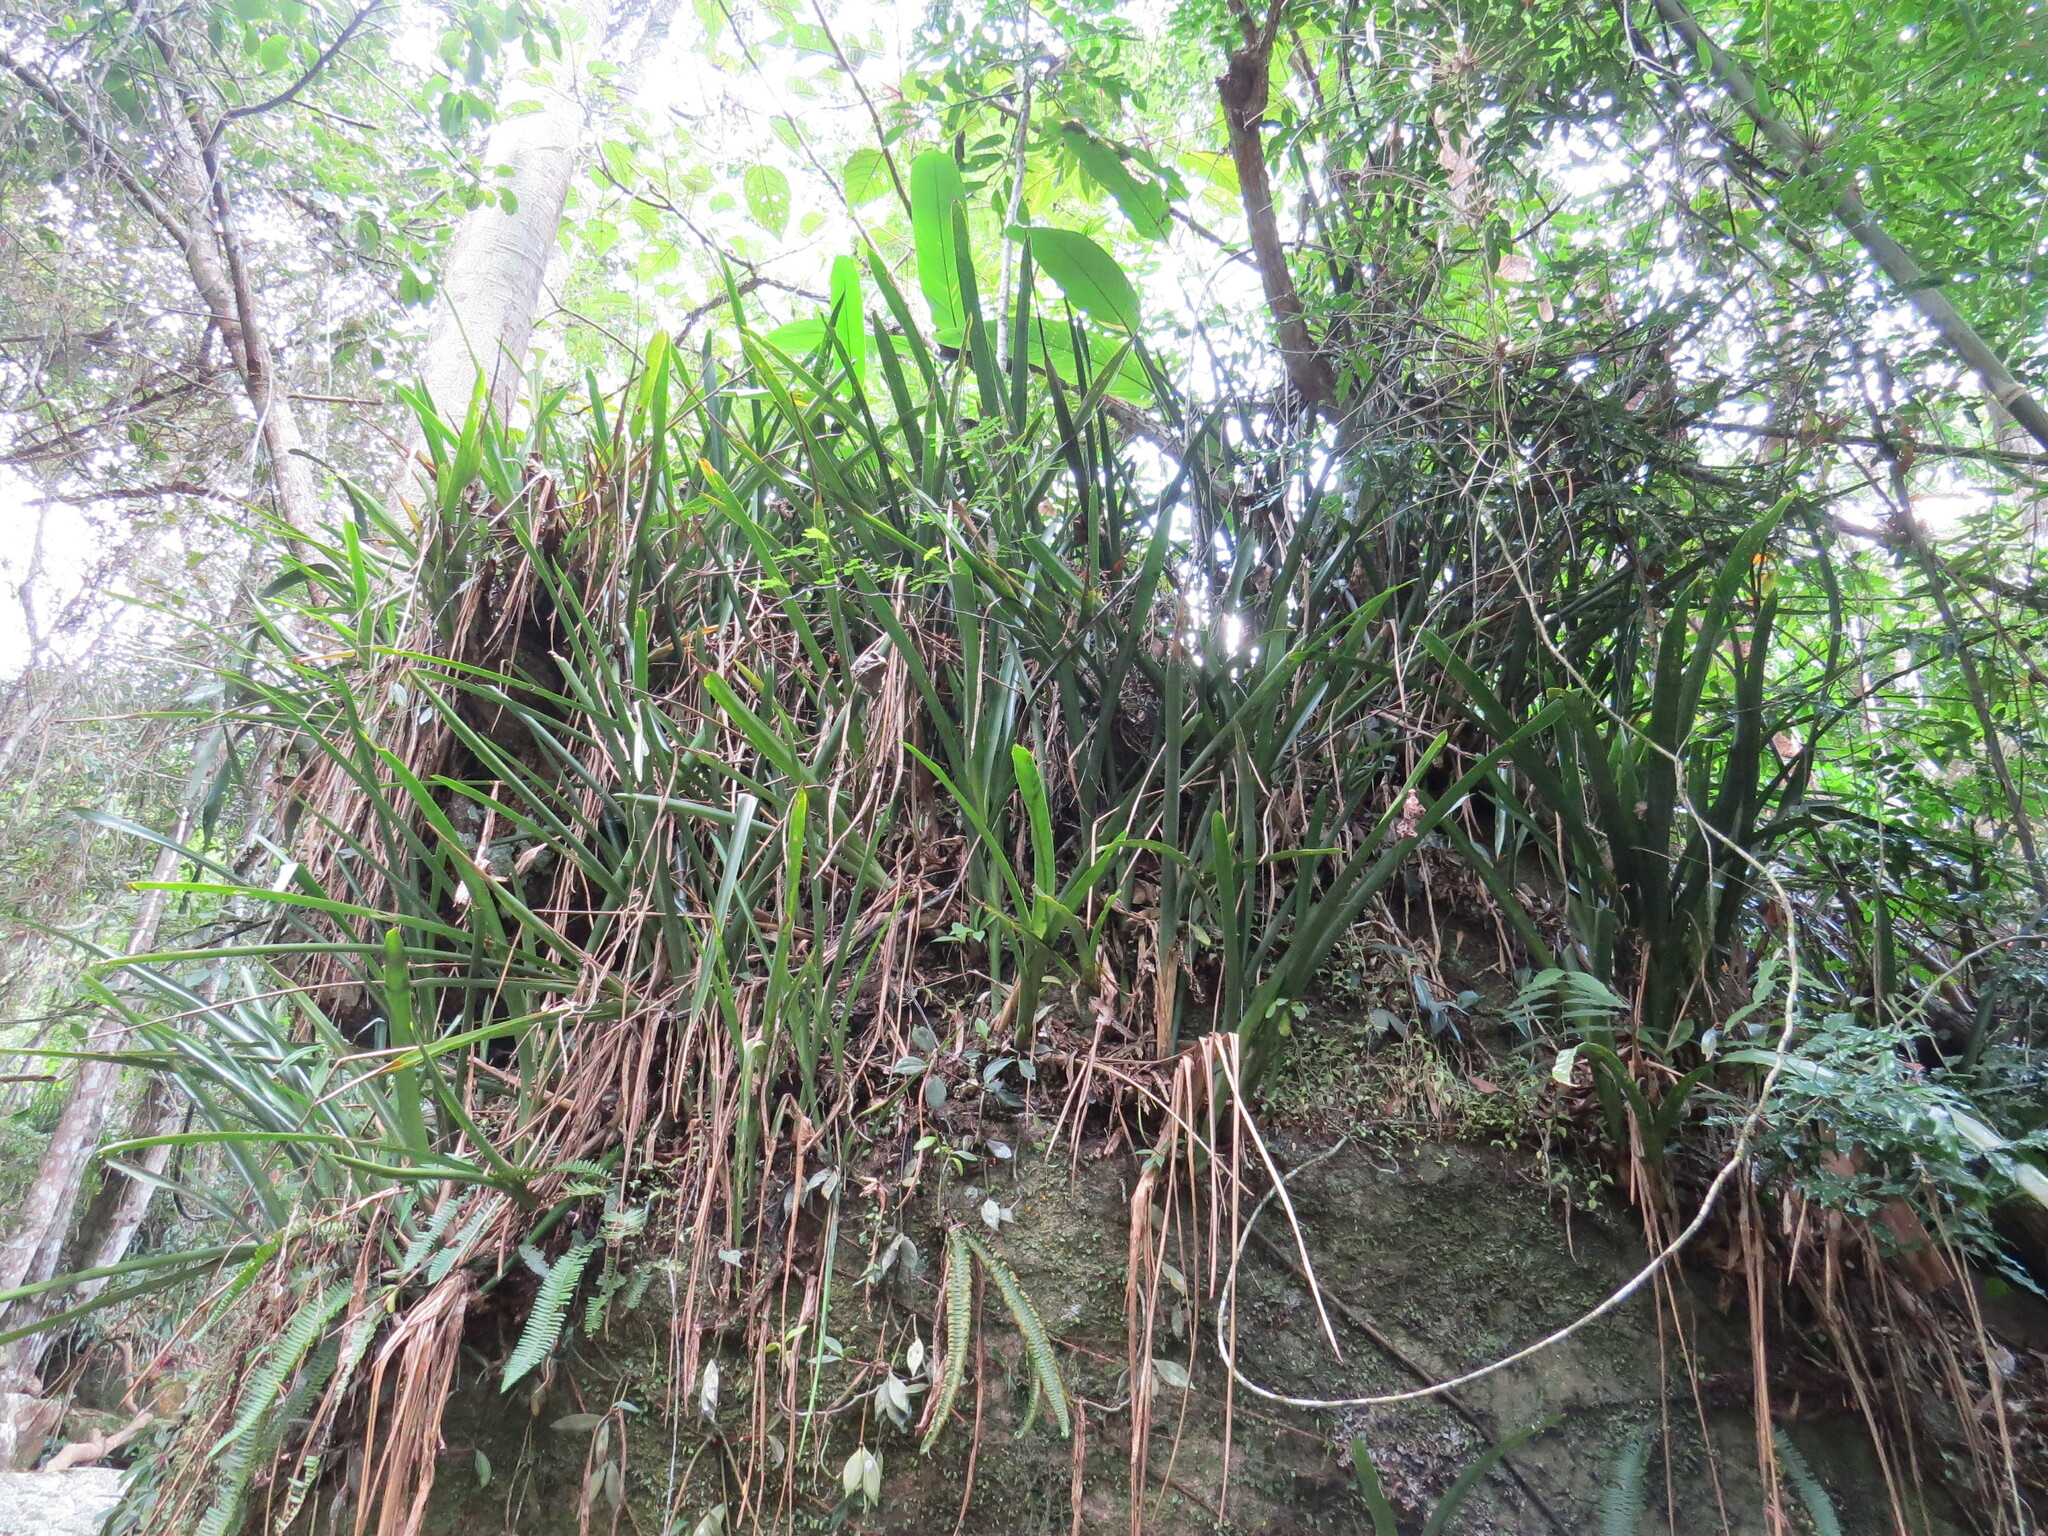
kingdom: Plantae
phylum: Tracheophyta
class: Liliopsida
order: Poales
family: Bromeliaceae
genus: Quesnelia
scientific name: Quesnelia augustocoburgi
